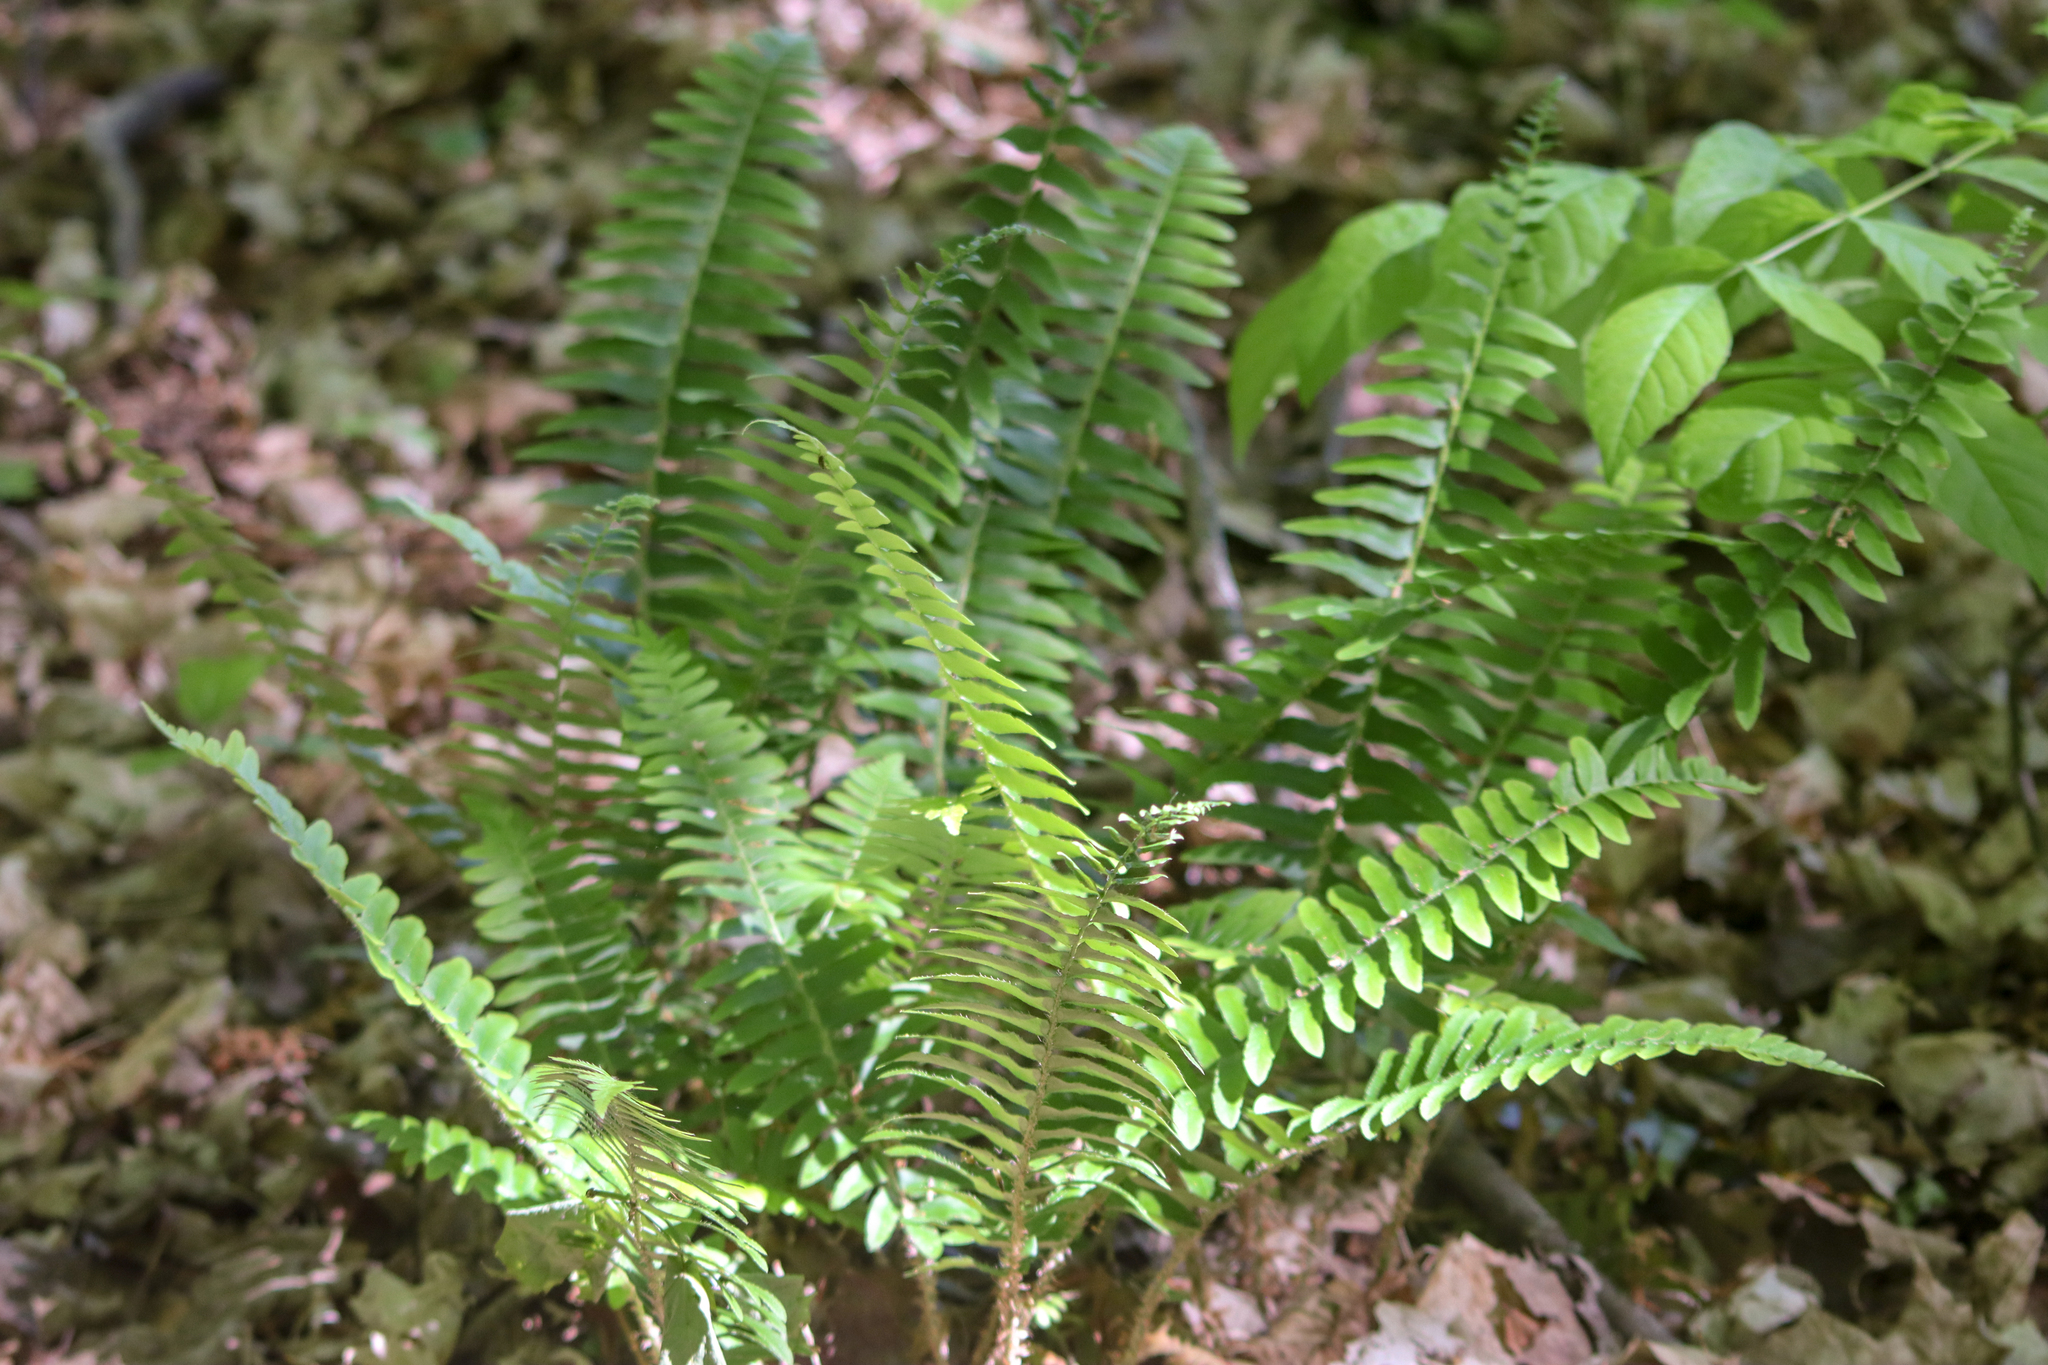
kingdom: Plantae
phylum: Tracheophyta
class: Polypodiopsida
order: Polypodiales
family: Dryopteridaceae
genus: Polystichum
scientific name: Polystichum acrostichoides
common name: Christmas fern
